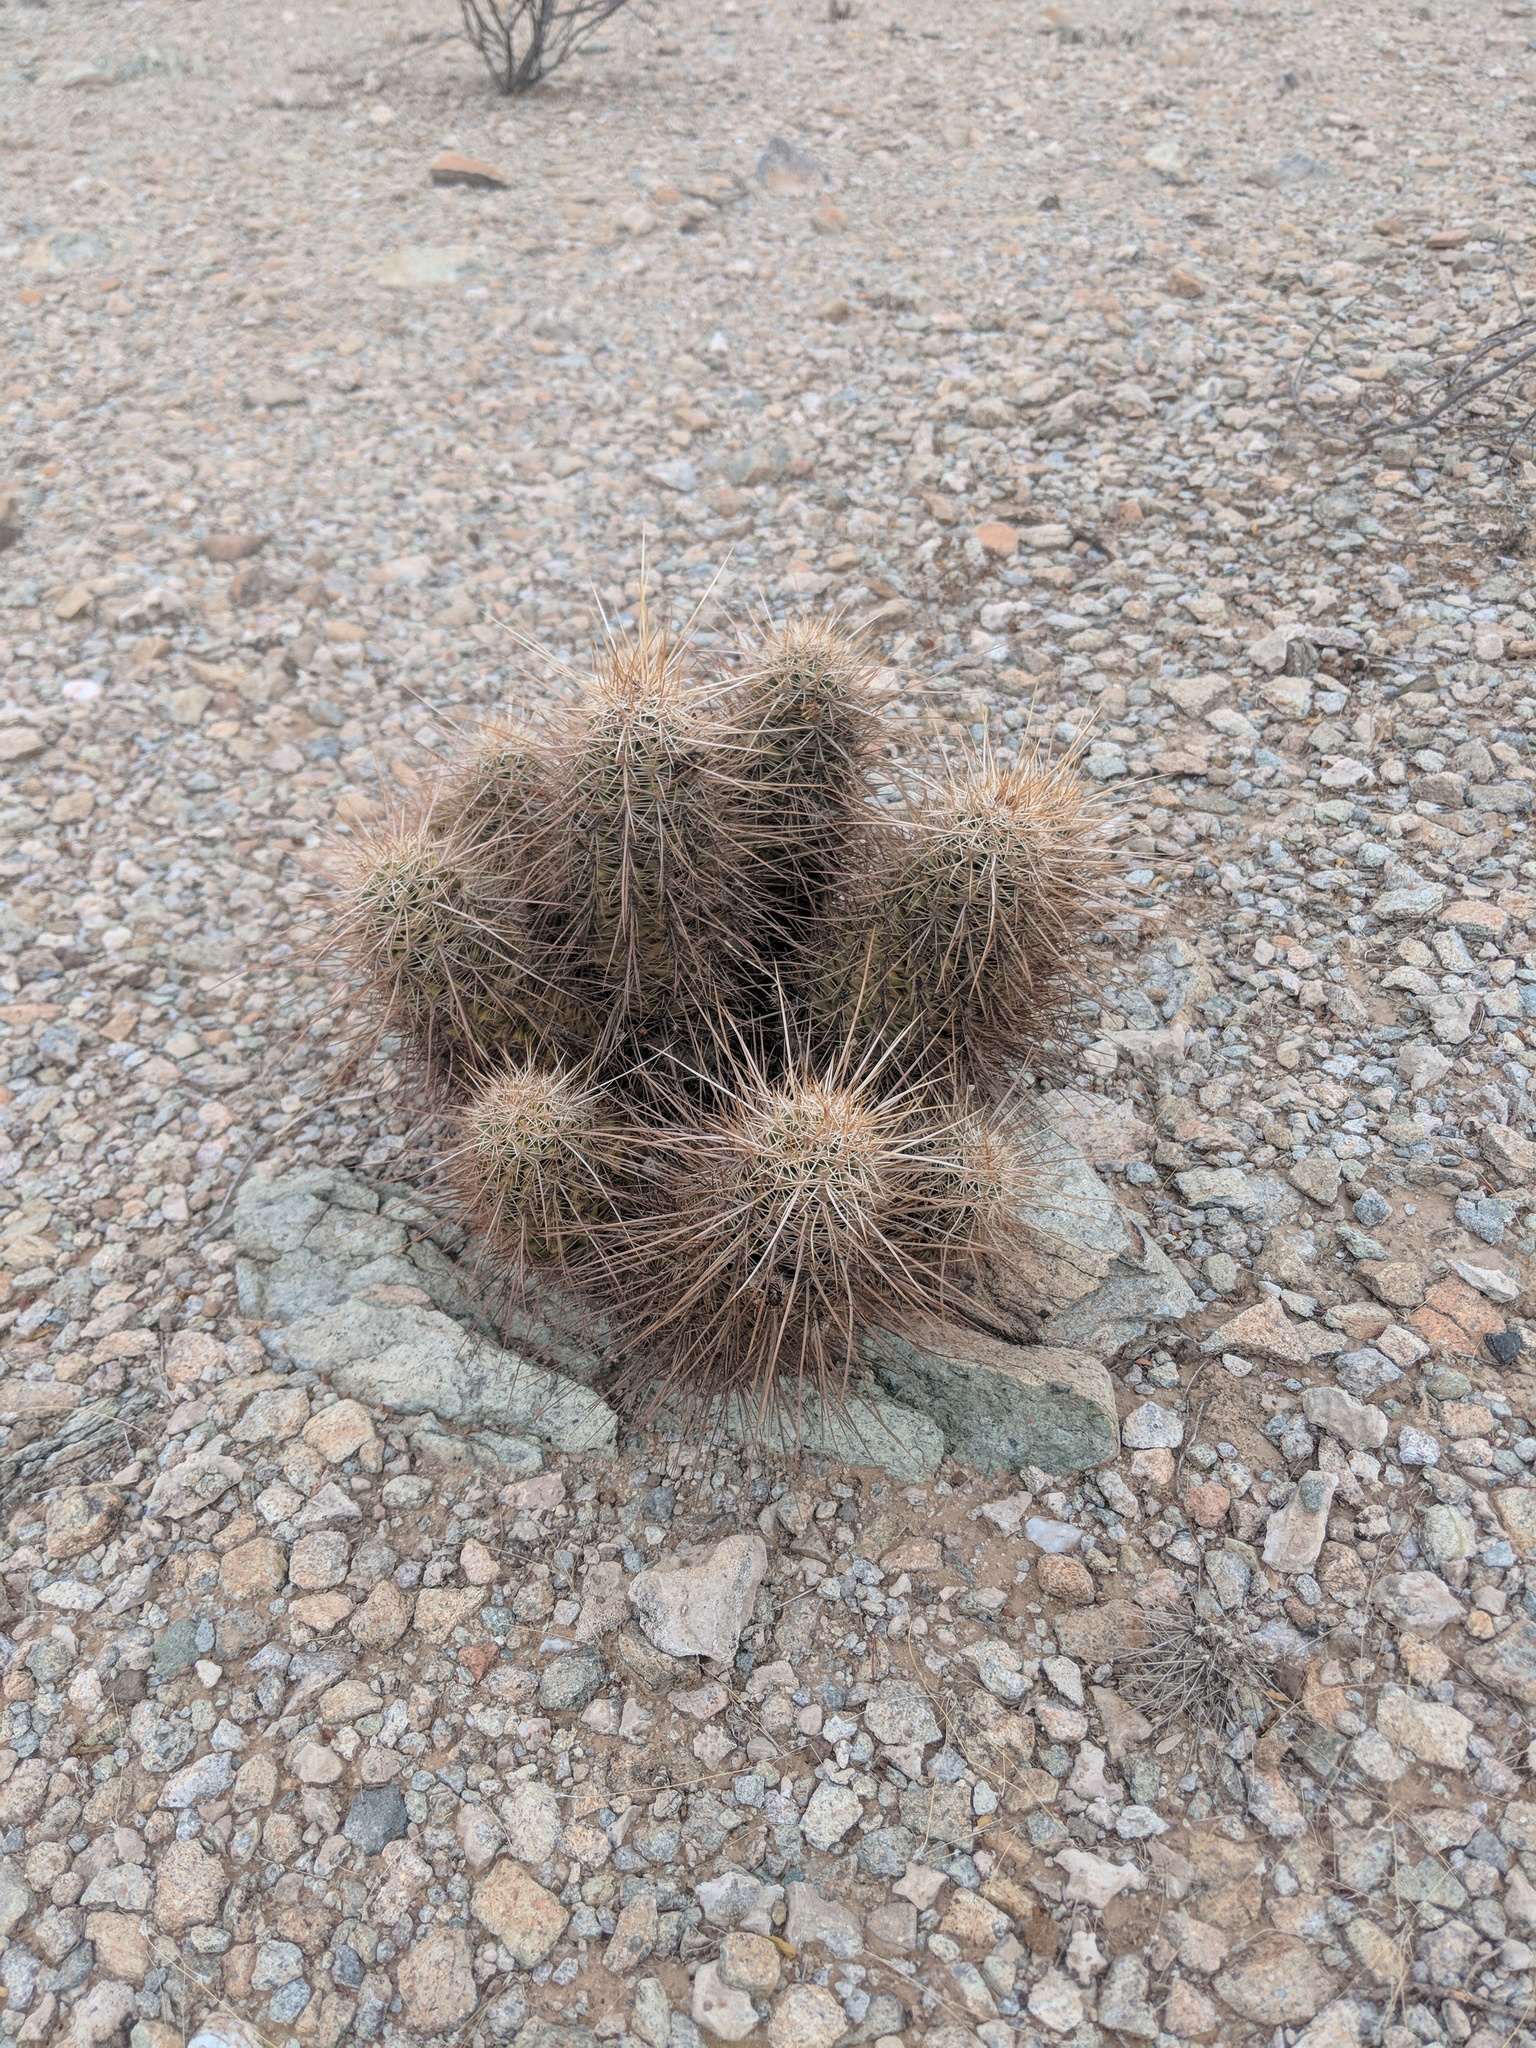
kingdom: Plantae
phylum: Tracheophyta
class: Magnoliopsida
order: Caryophyllales
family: Cactaceae
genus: Echinocereus
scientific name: Echinocereus engelmannii
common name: Engelmann's hedgehog cactus
